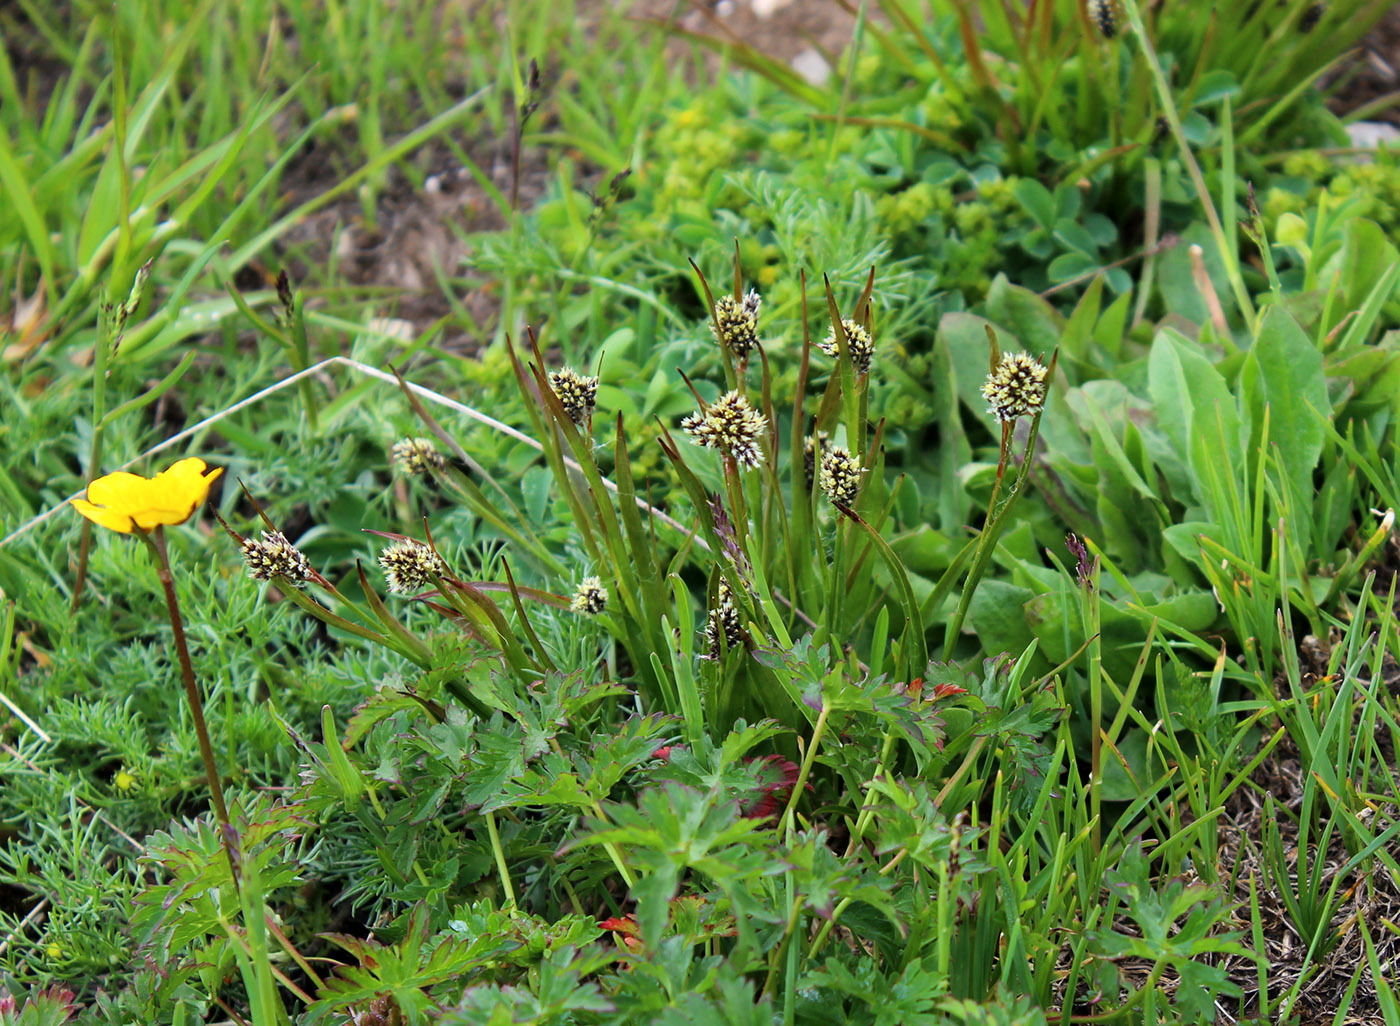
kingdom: Plantae
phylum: Tracheophyta
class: Liliopsida
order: Poales
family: Juncaceae
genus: Luzula
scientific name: Luzula stenophylla
